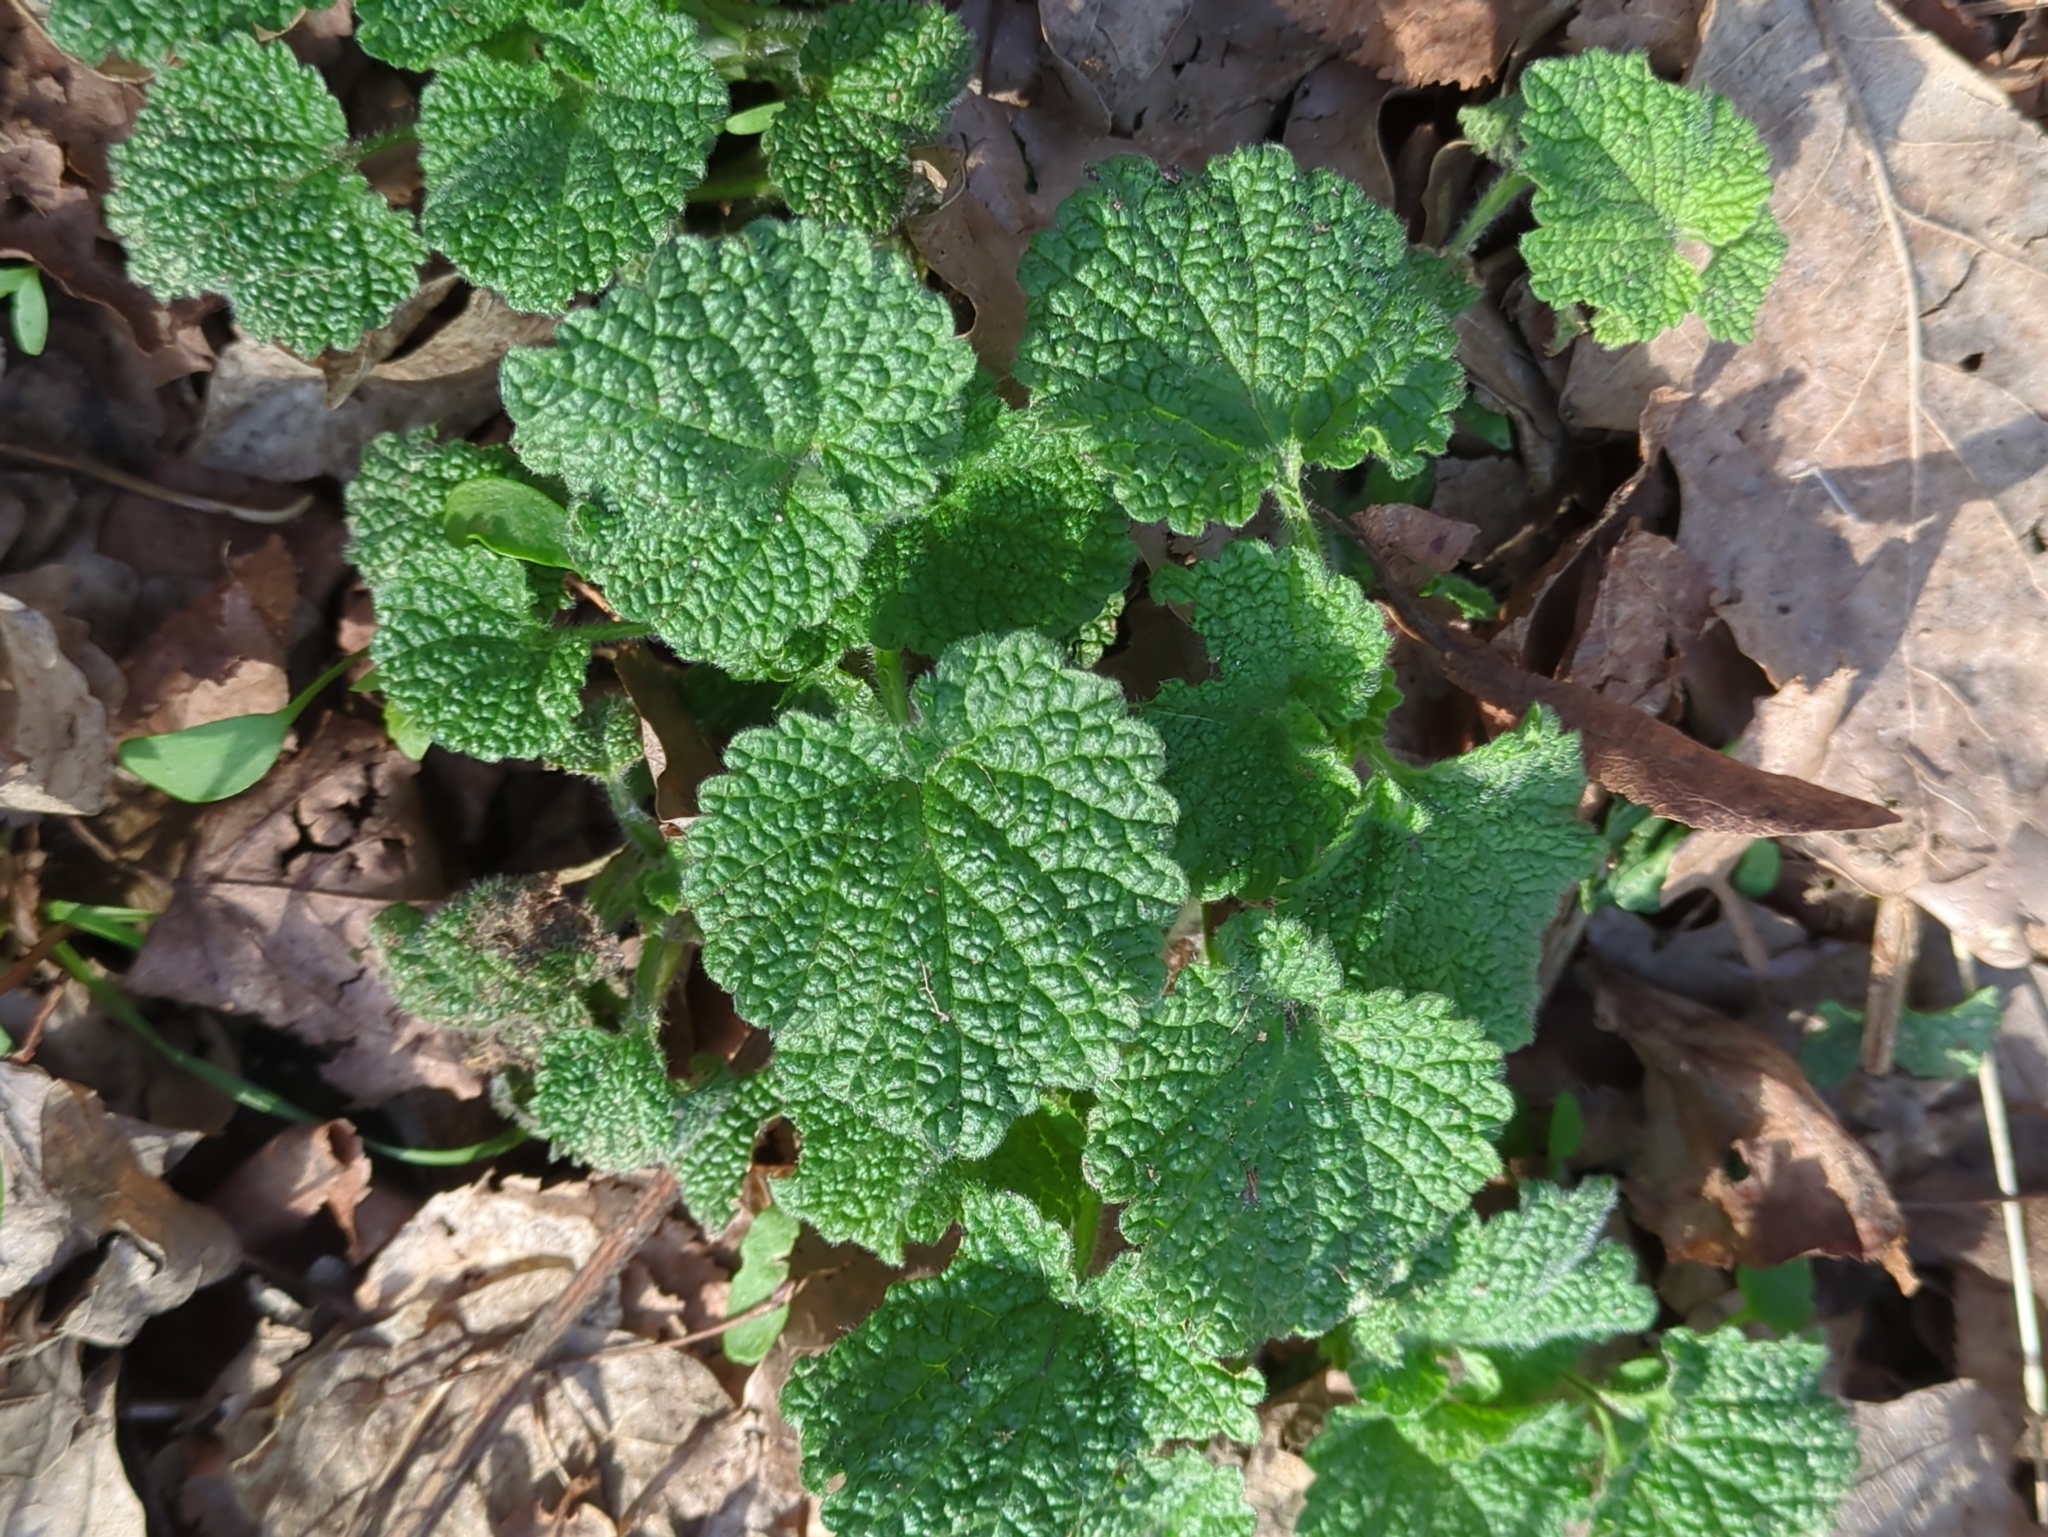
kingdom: Plantae
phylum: Tracheophyta
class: Magnoliopsida
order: Lamiales
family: Lamiaceae
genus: Ballota
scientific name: Ballota nigra
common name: Black horehound
